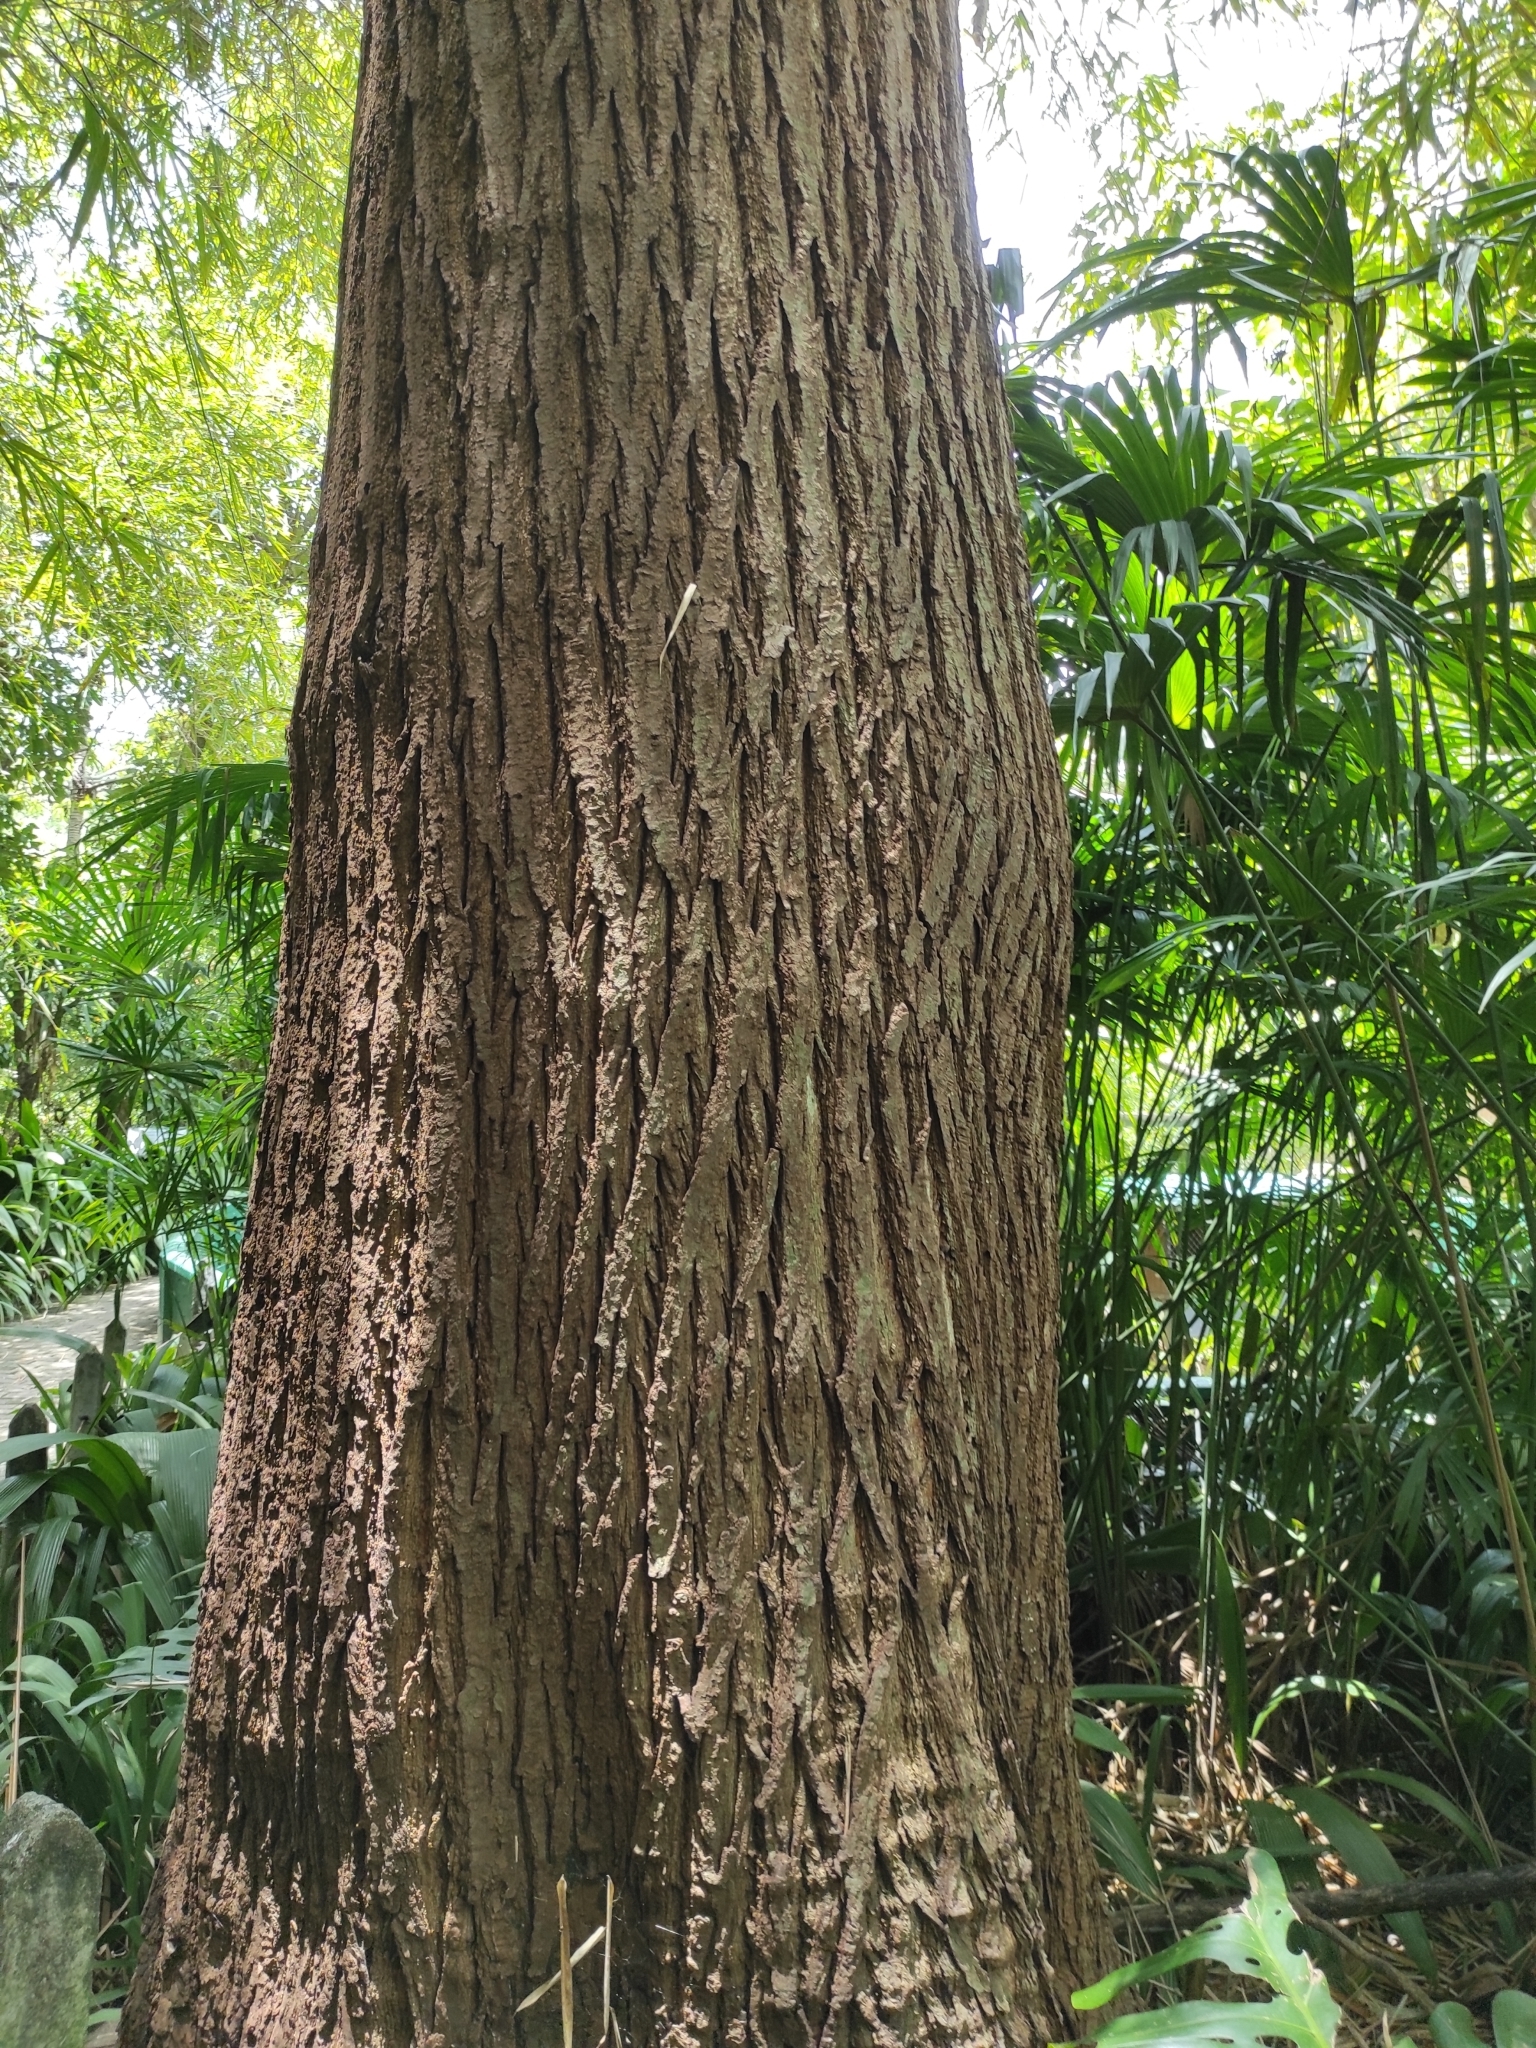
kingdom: Plantae
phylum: Tracheophyta
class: Magnoliopsida
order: Sapindales
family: Meliaceae
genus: Cedrela
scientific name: Cedrela odorata
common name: Red cedar
